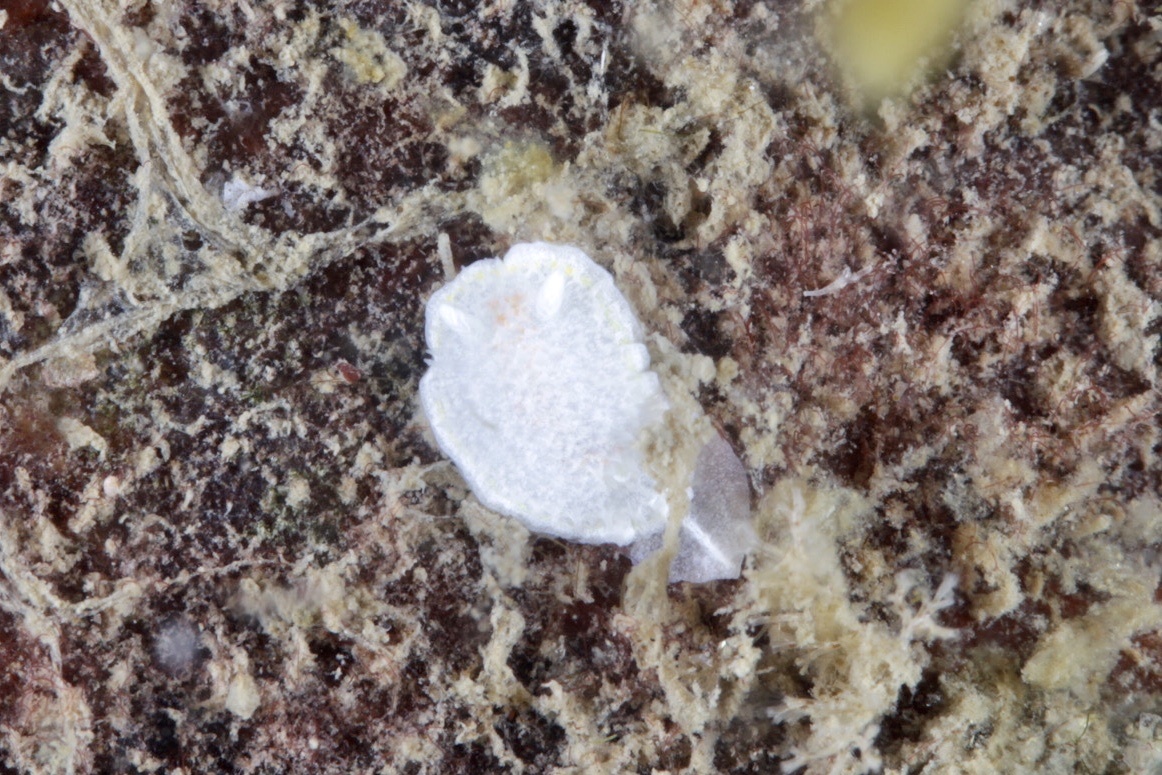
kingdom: Animalia
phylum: Mollusca
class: Gastropoda
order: Nudibranchia
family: Calycidorididae
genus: Diaphorodoris
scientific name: Diaphorodoris luteocincta
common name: Fried egg nudibranch
